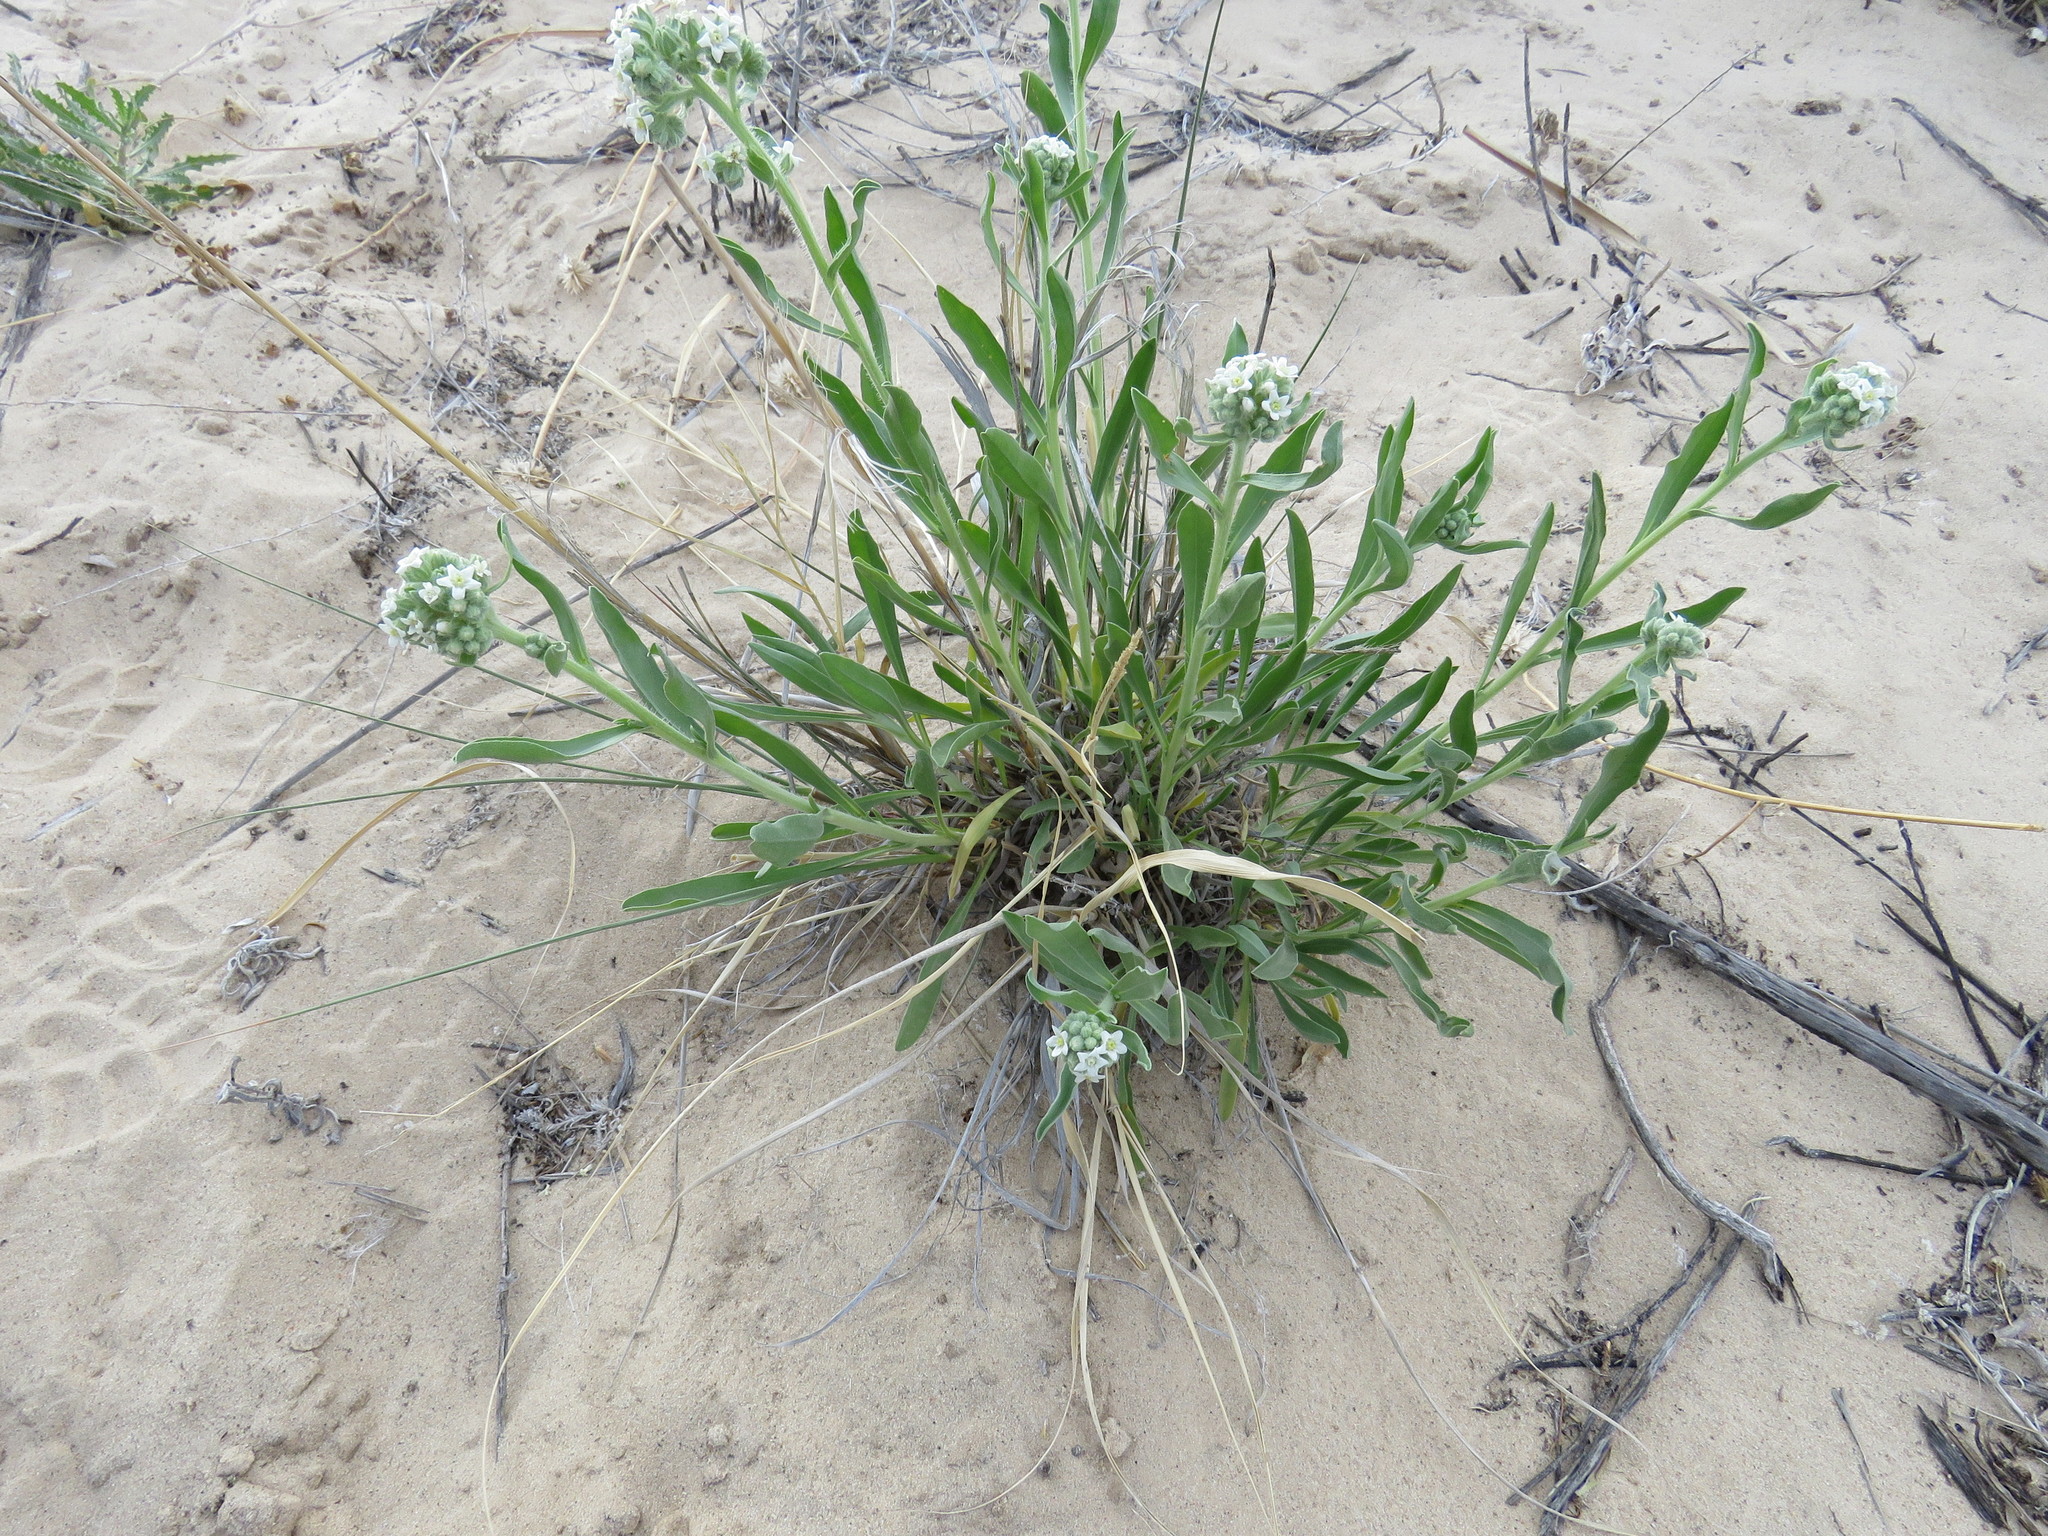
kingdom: Plantae
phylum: Tracheophyta
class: Magnoliopsida
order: Boraginales
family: Boraginaceae
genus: Oreocarya
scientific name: Oreocarya suffruticosa
